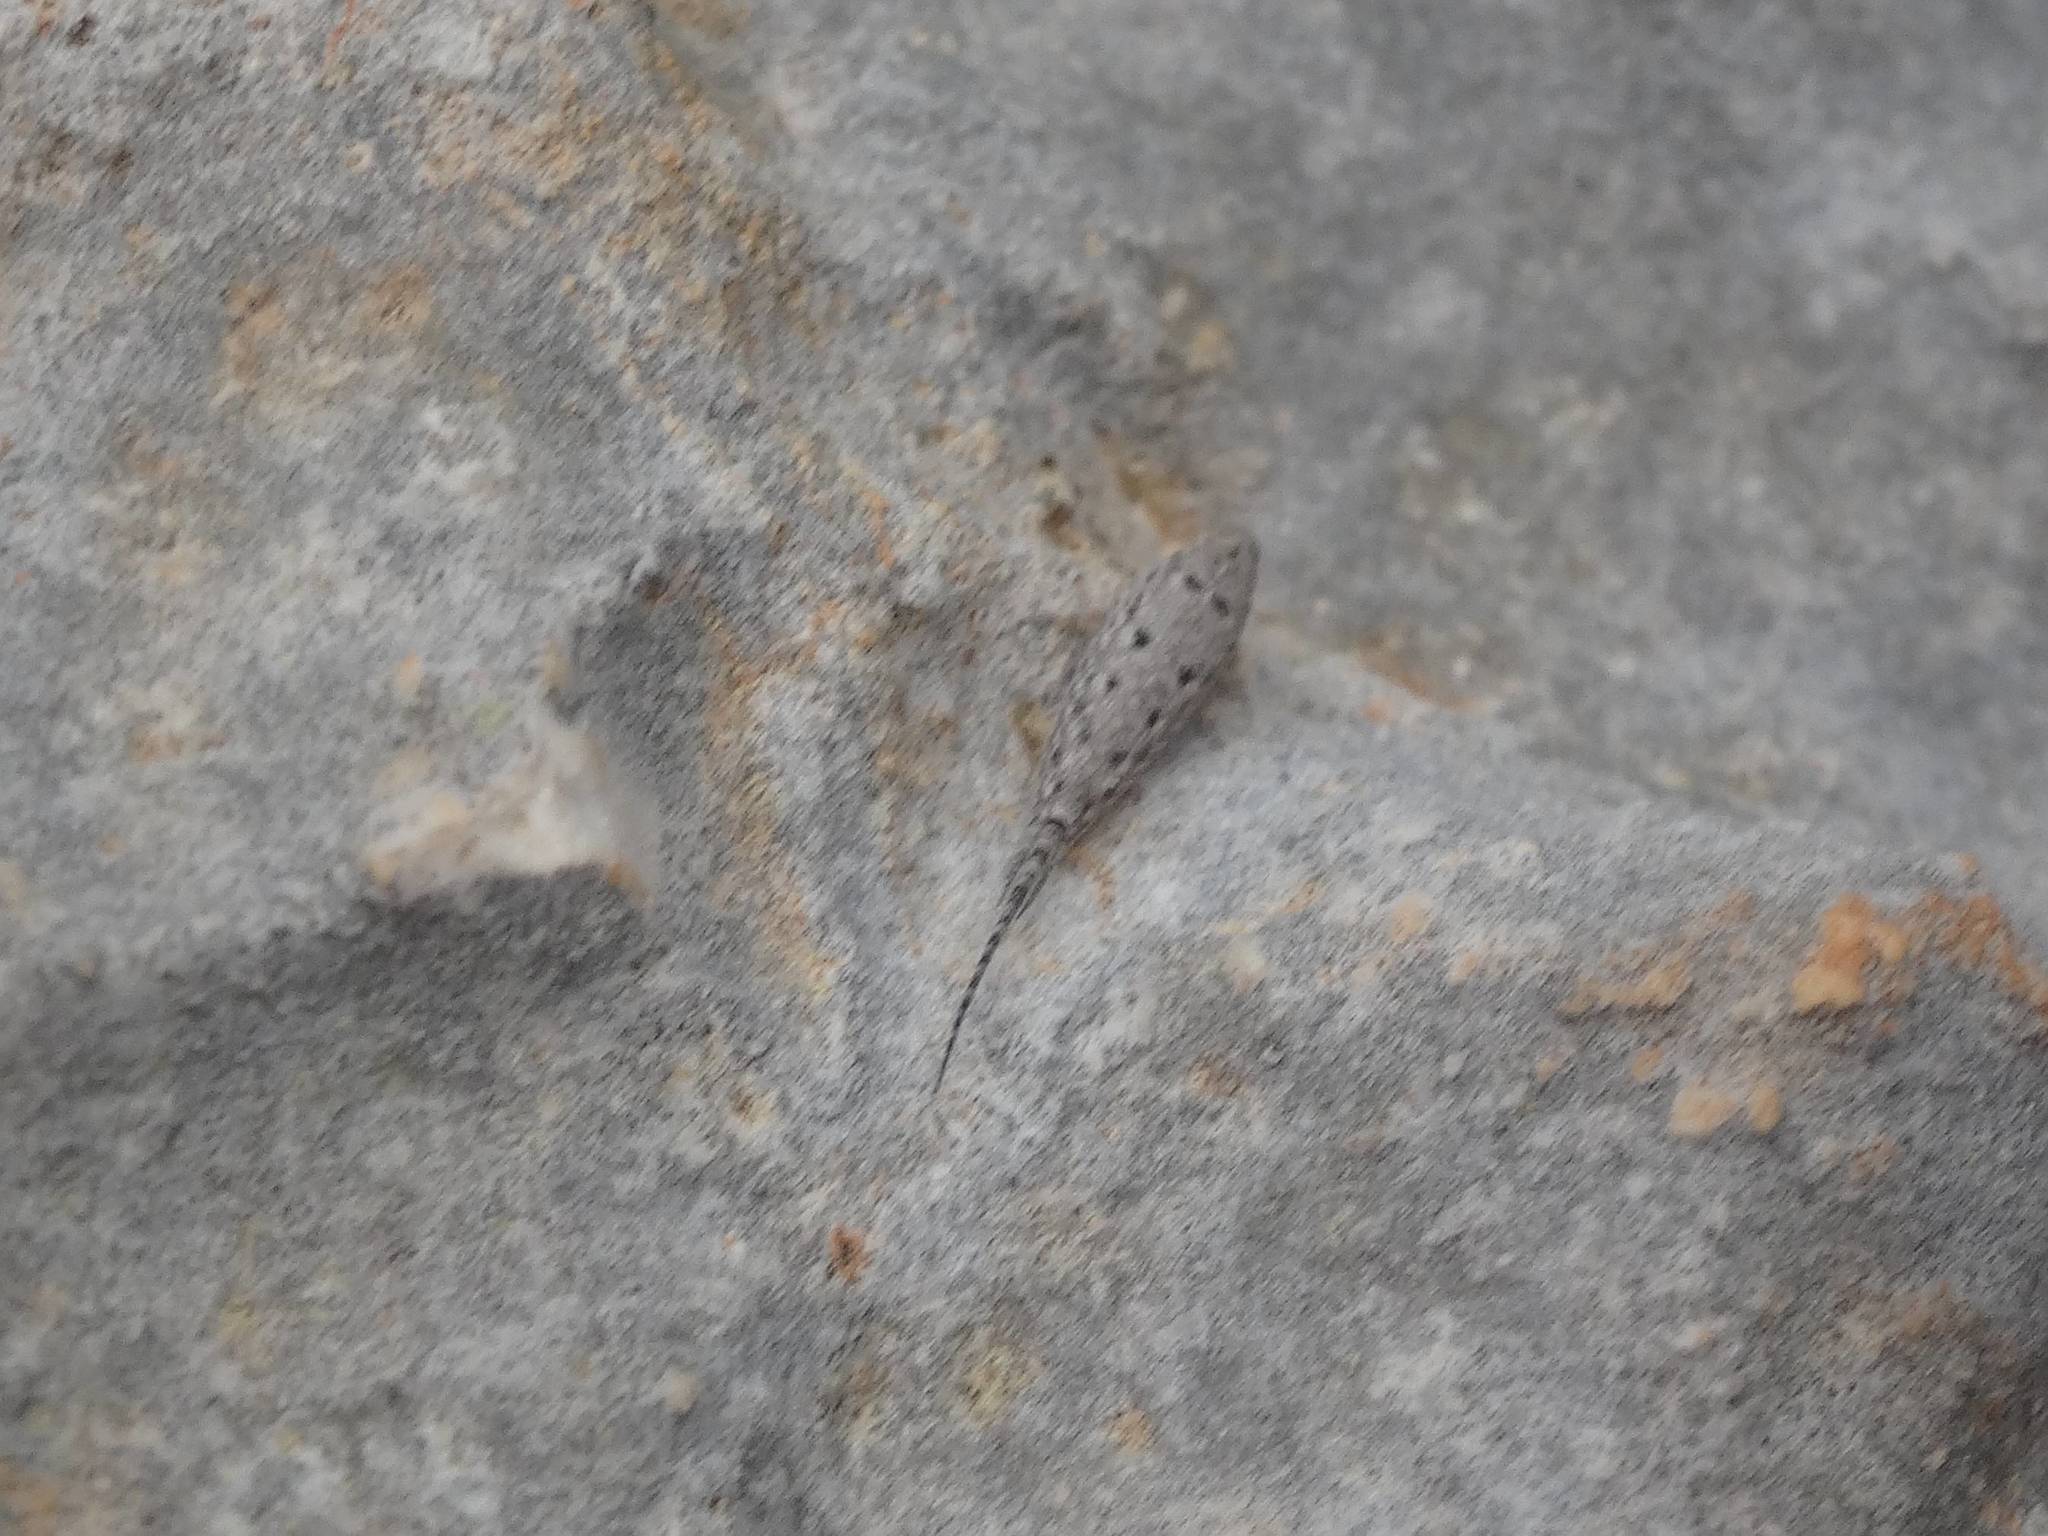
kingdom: Animalia
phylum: Arthropoda
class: Insecta
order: Archaeognatha
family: Meinertellidae
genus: Machilinus
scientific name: Machilinus rupestris
